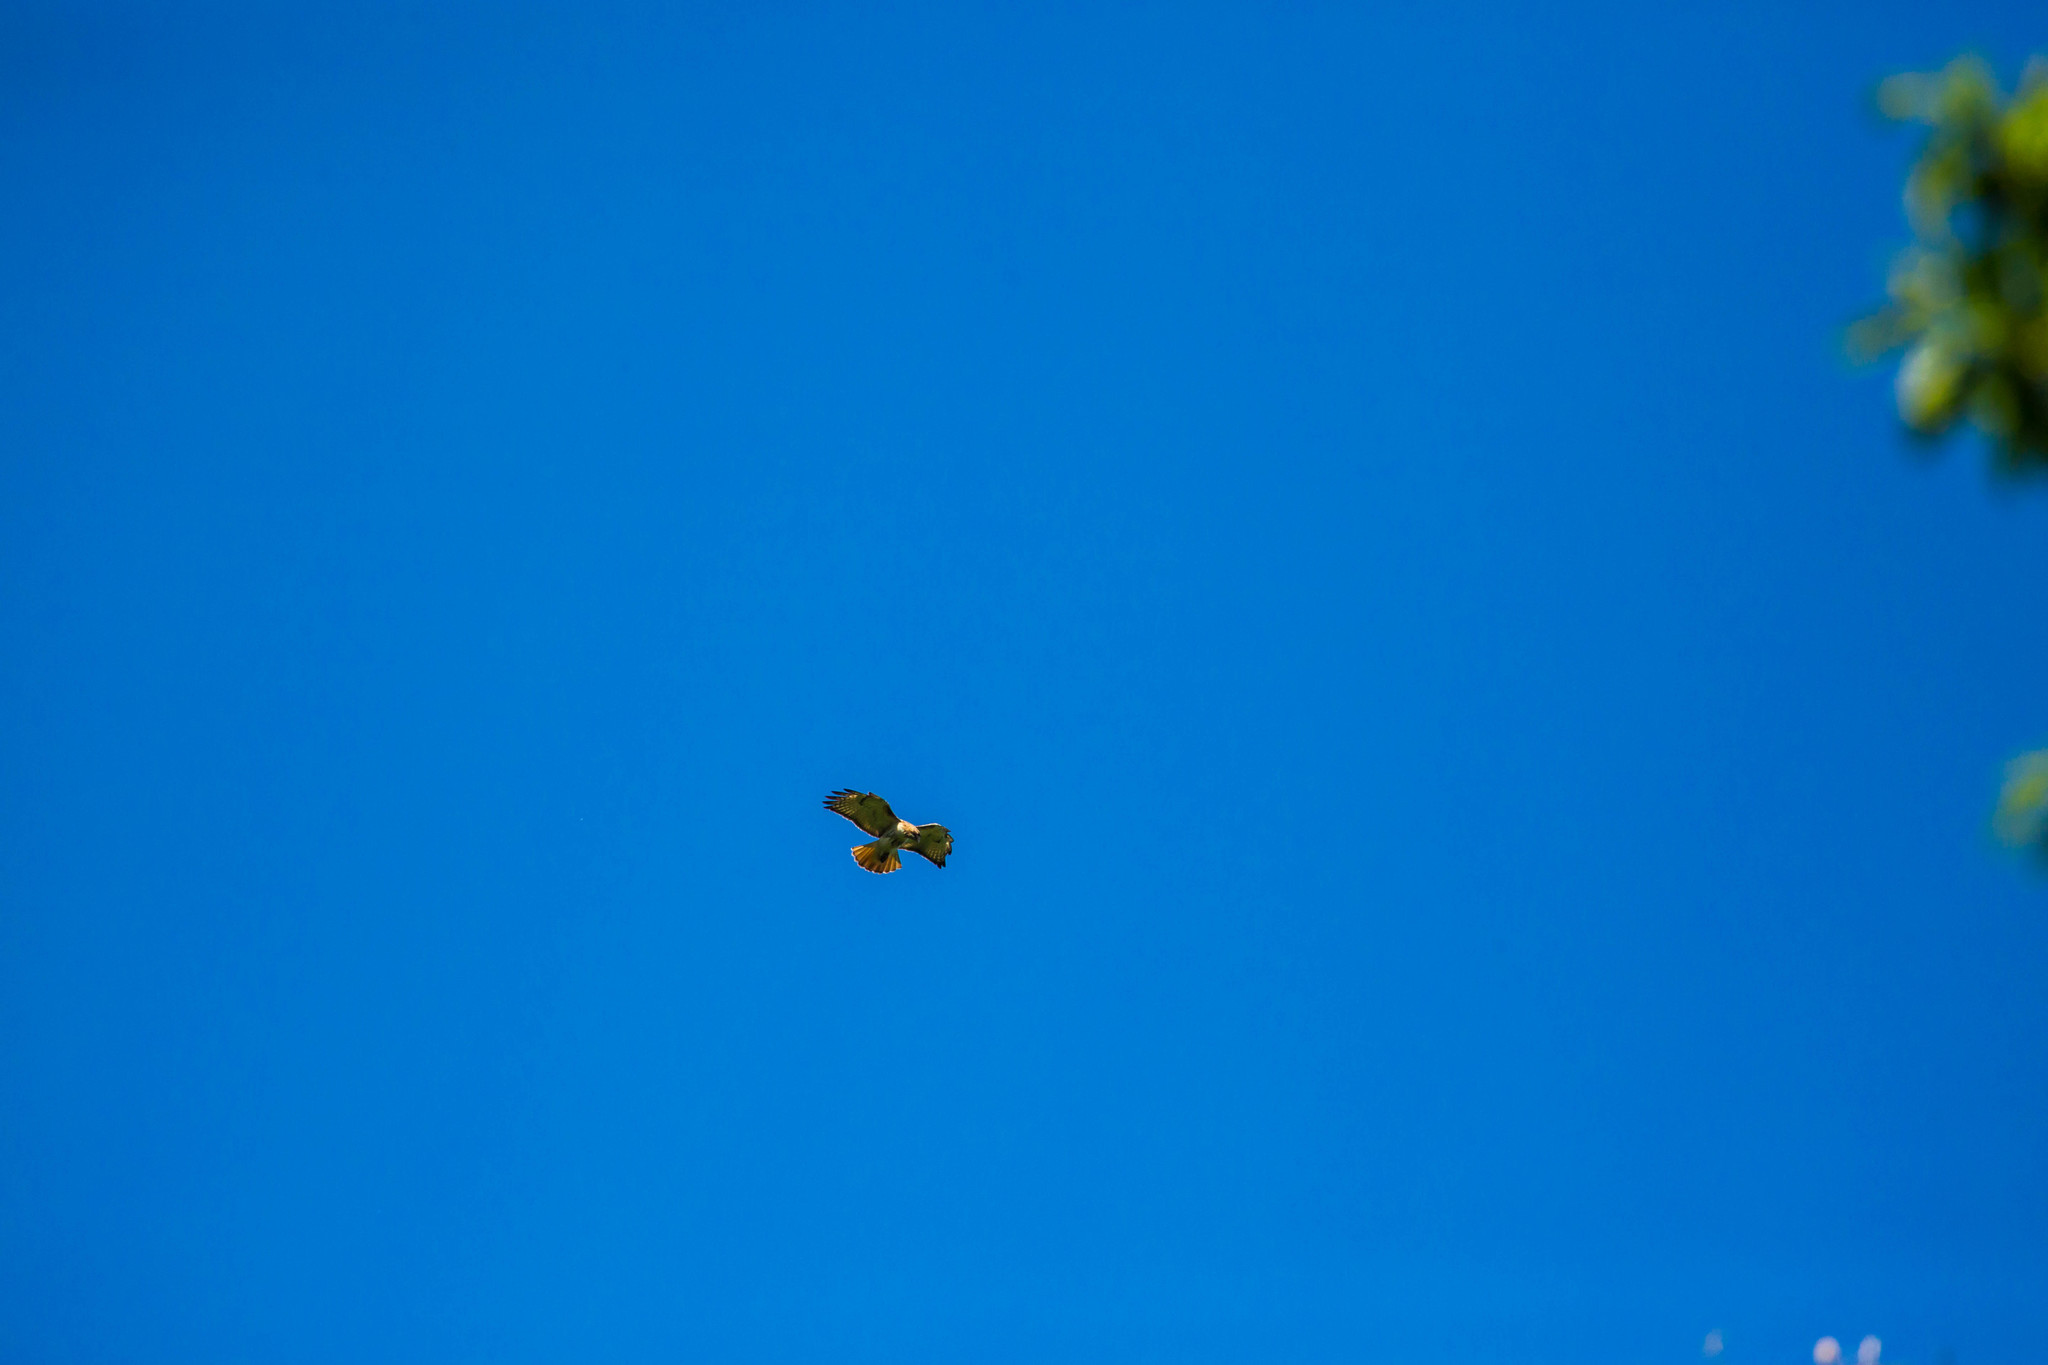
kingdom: Animalia
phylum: Chordata
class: Aves
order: Accipitriformes
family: Accipitridae
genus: Buteo
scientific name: Buteo jamaicensis
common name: Red-tailed hawk
